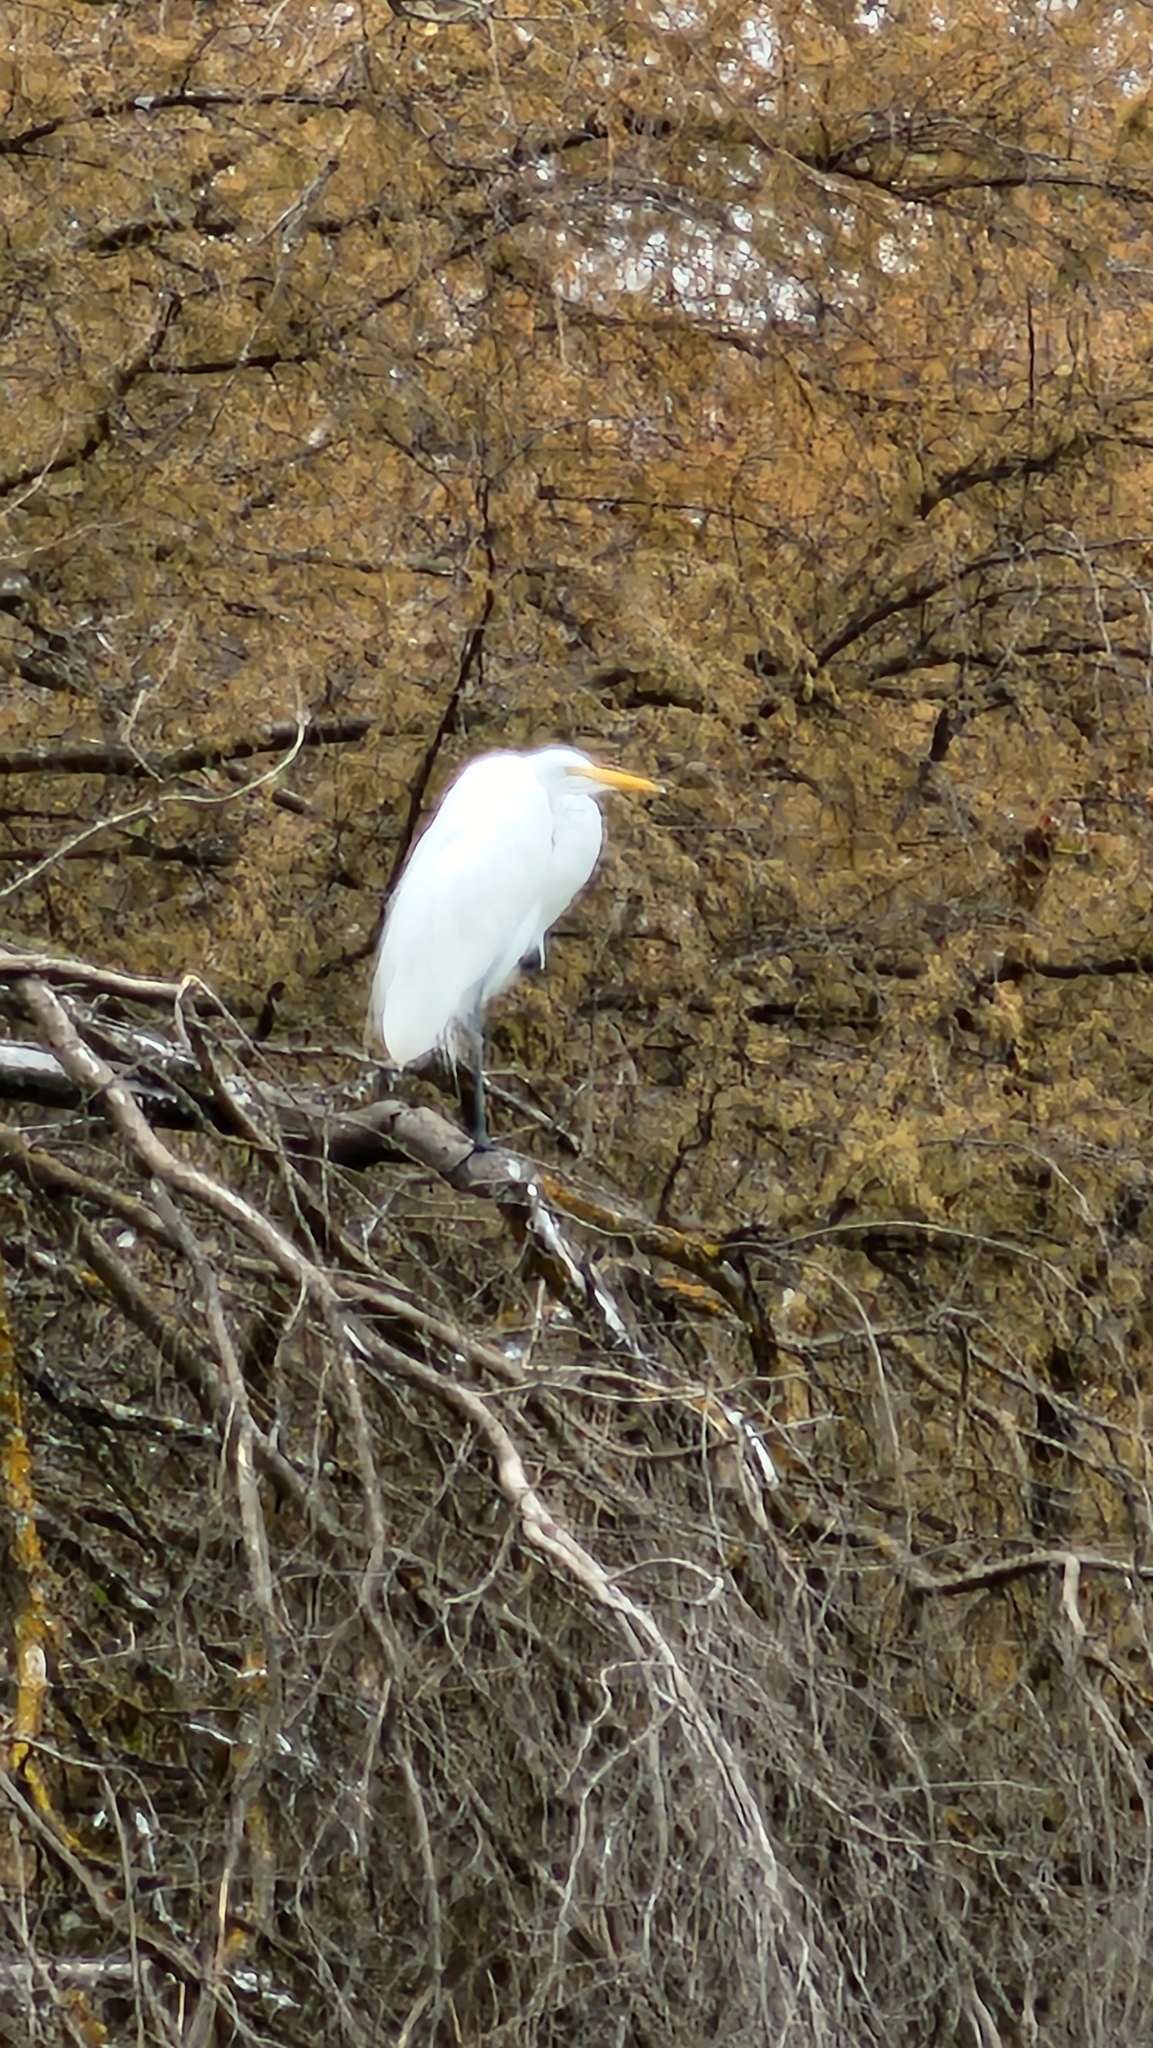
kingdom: Animalia
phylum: Chordata
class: Aves
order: Pelecaniformes
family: Ardeidae
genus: Ardea
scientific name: Ardea alba
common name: Great egret
